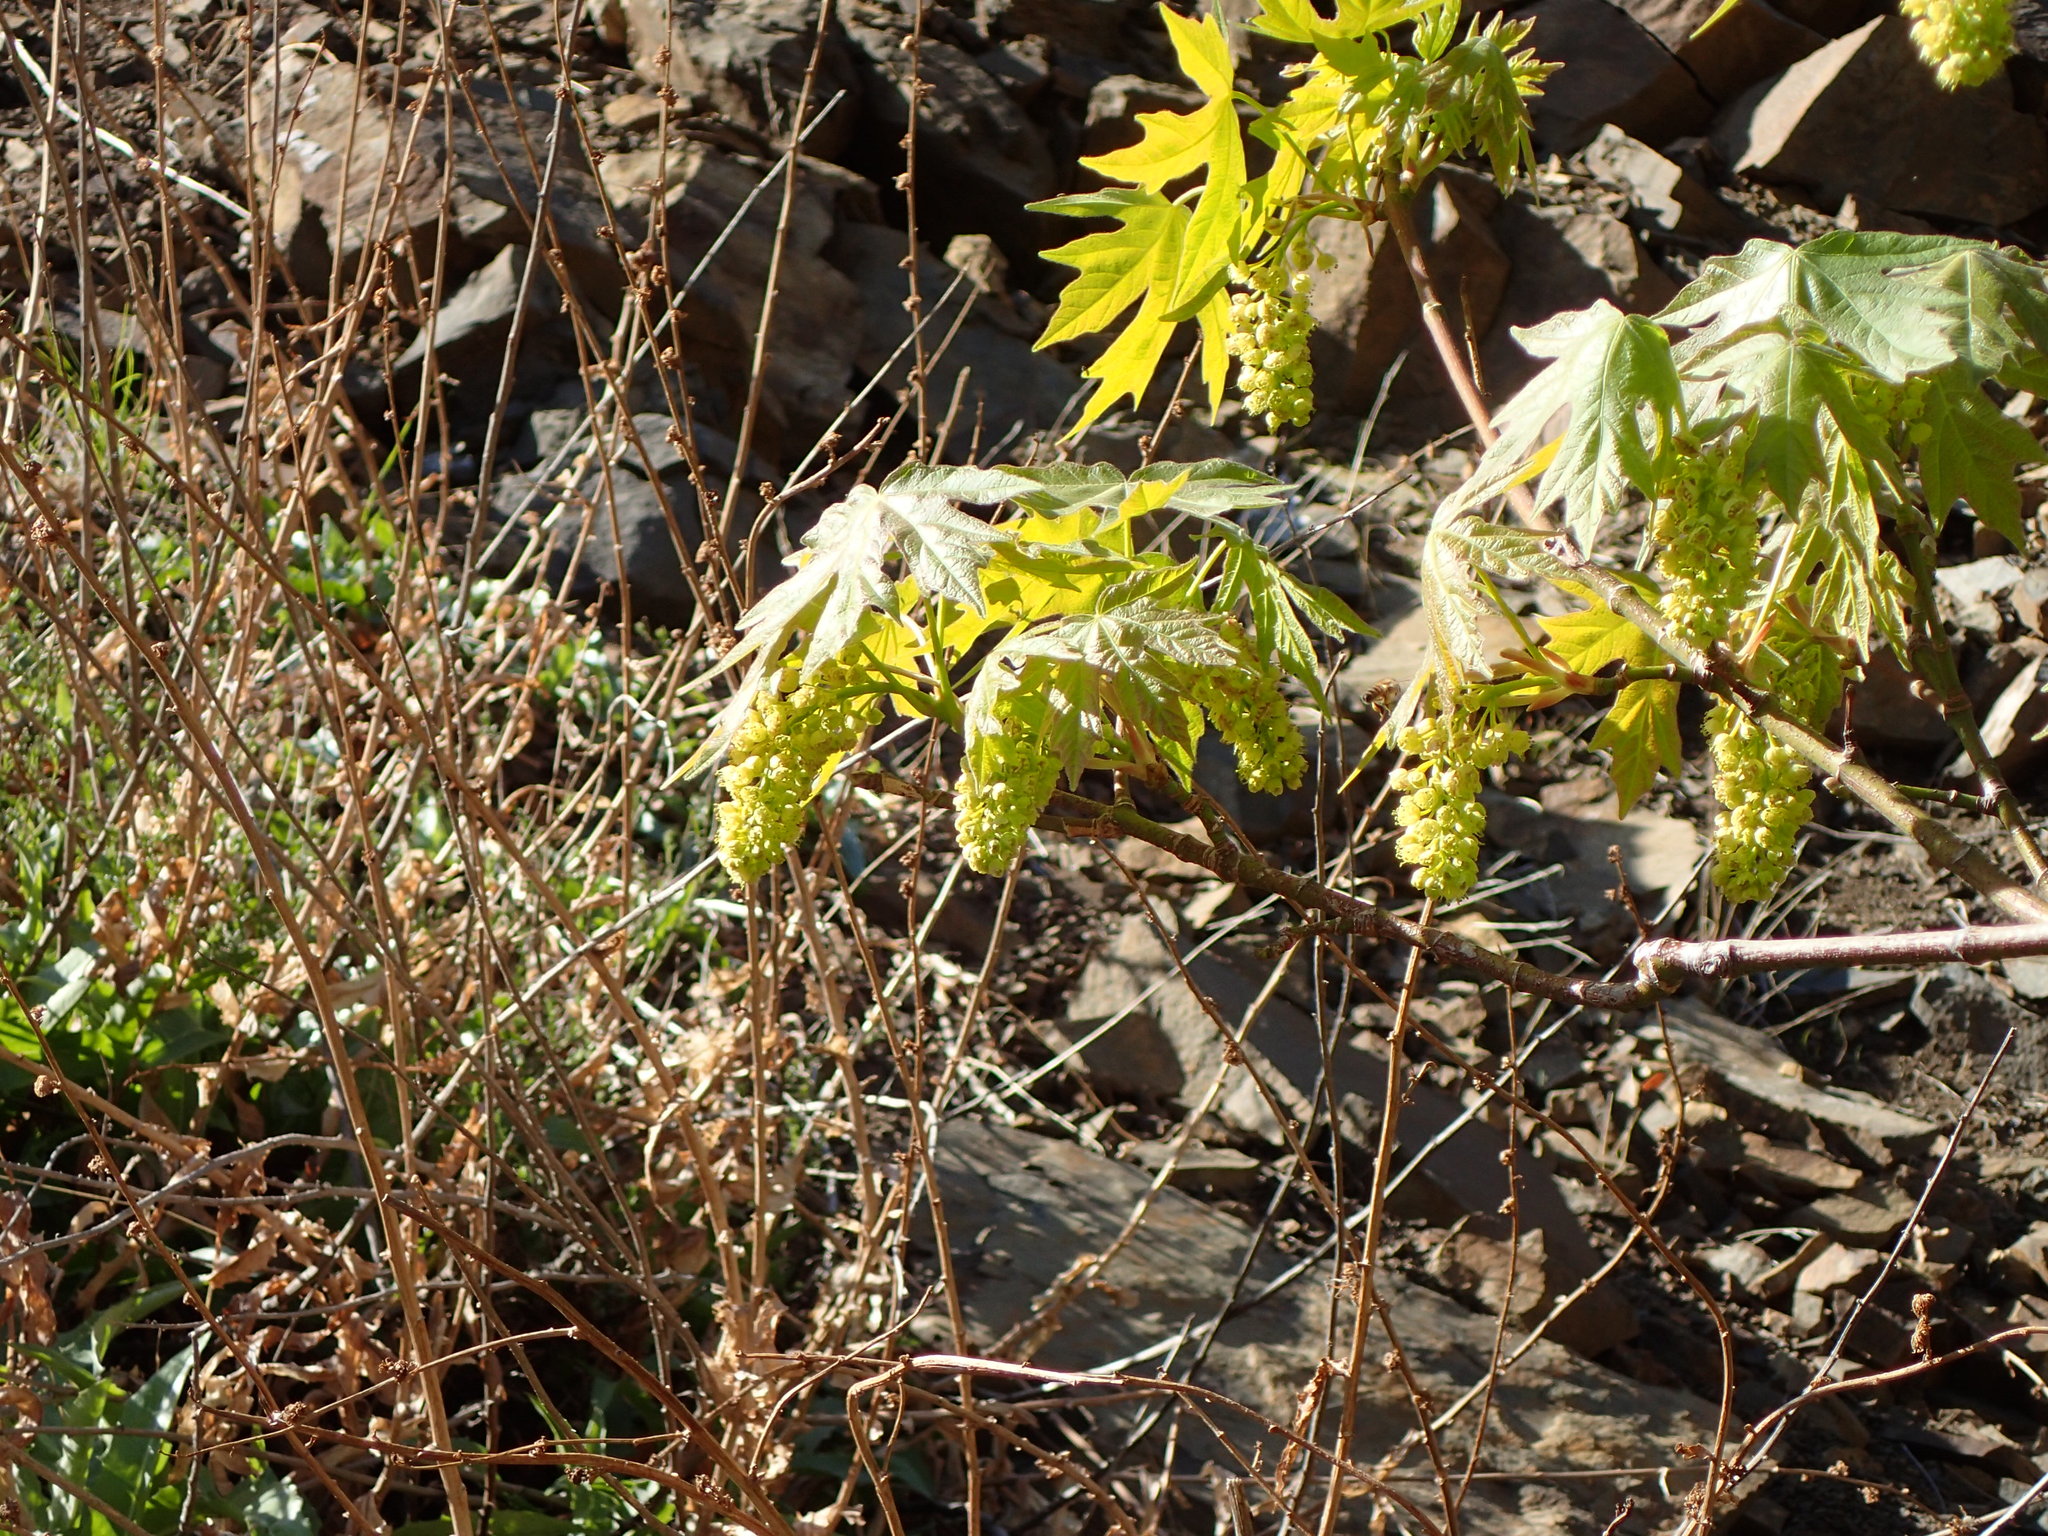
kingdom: Plantae
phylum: Tracheophyta
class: Magnoliopsida
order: Sapindales
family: Sapindaceae
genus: Acer
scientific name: Acer macrophyllum
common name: Oregon maple
